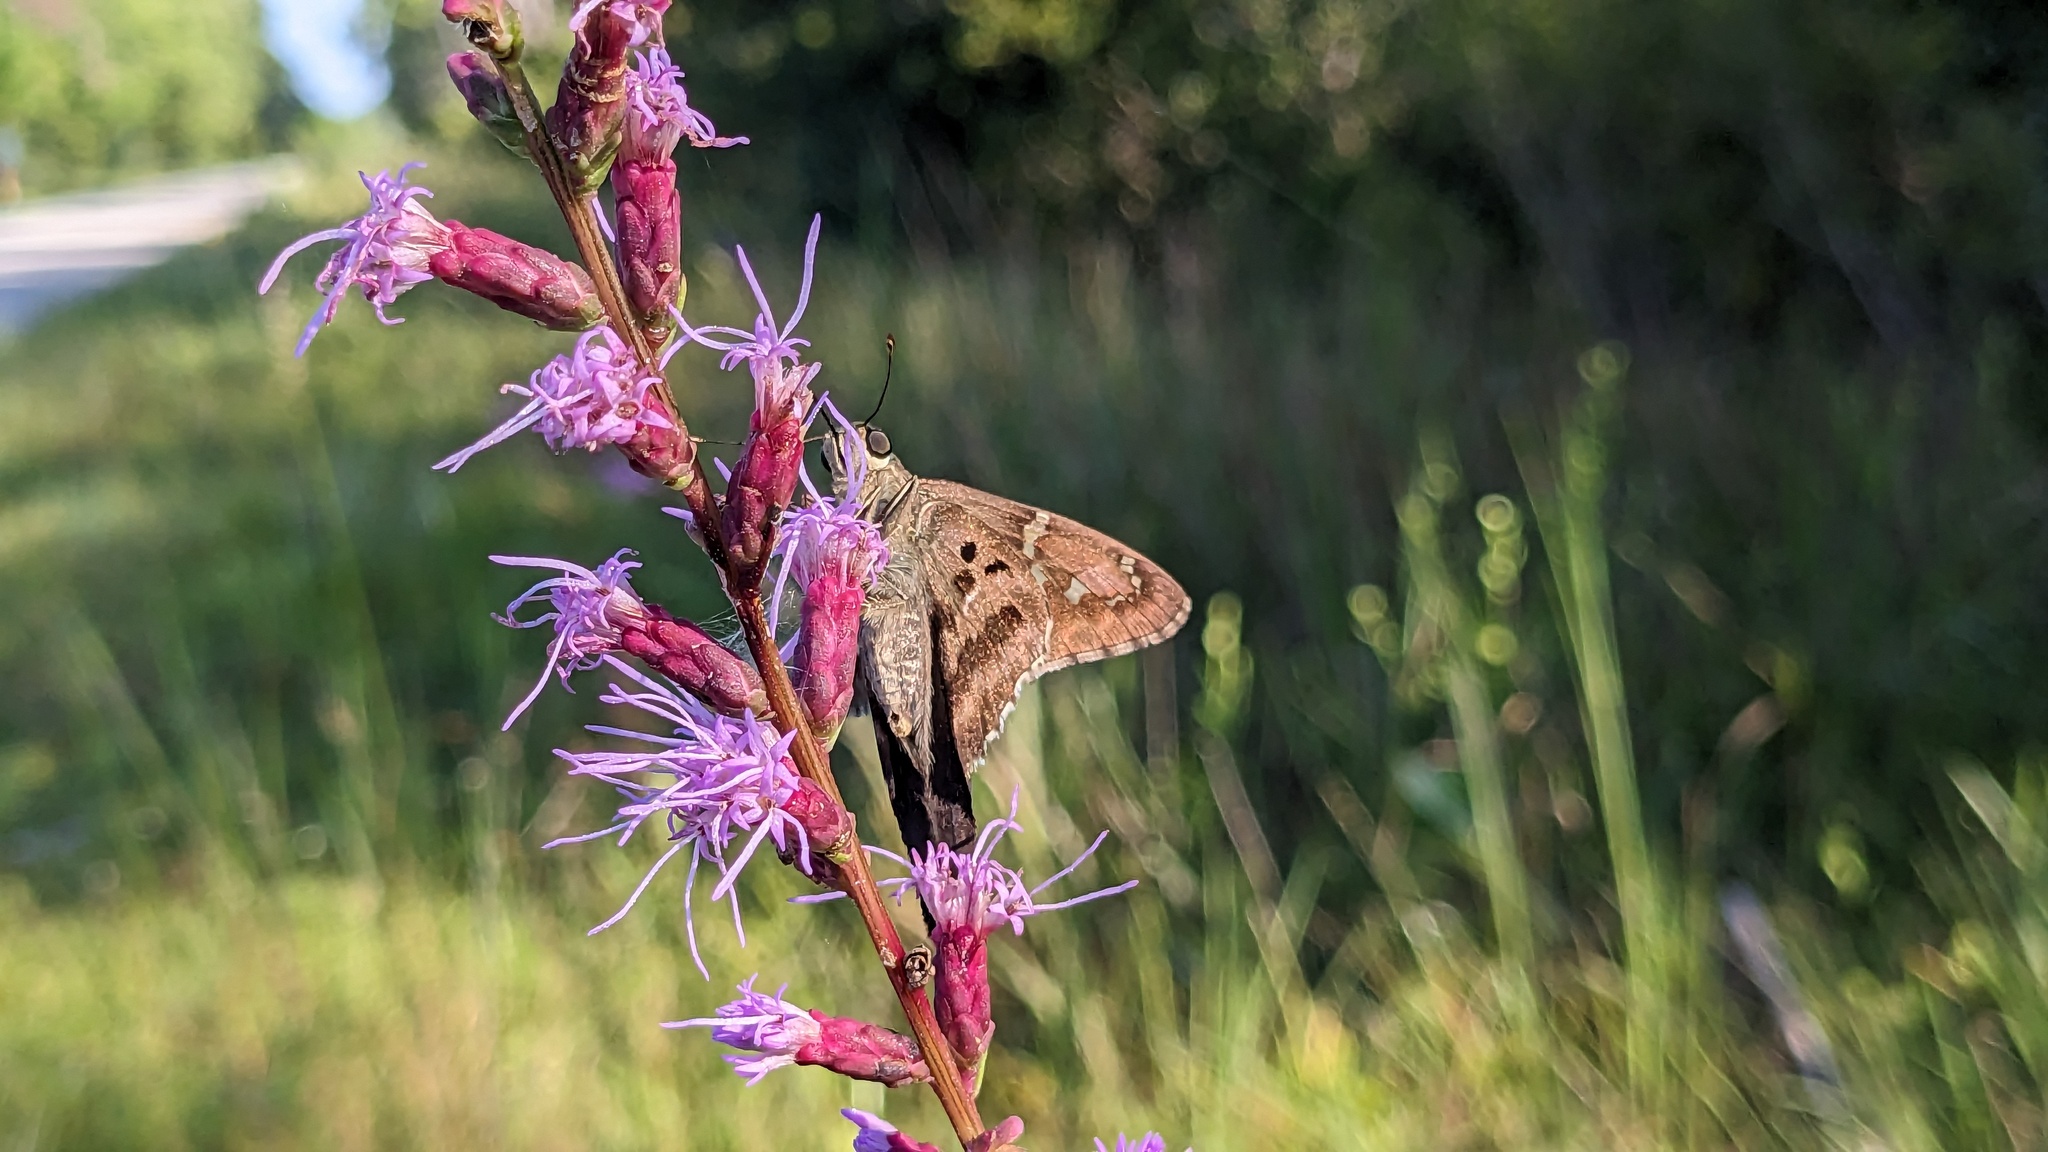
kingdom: Animalia
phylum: Arthropoda
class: Insecta
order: Lepidoptera
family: Hesperiidae
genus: Urbanus
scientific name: Urbanus proteus
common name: Long-tailed skipper
